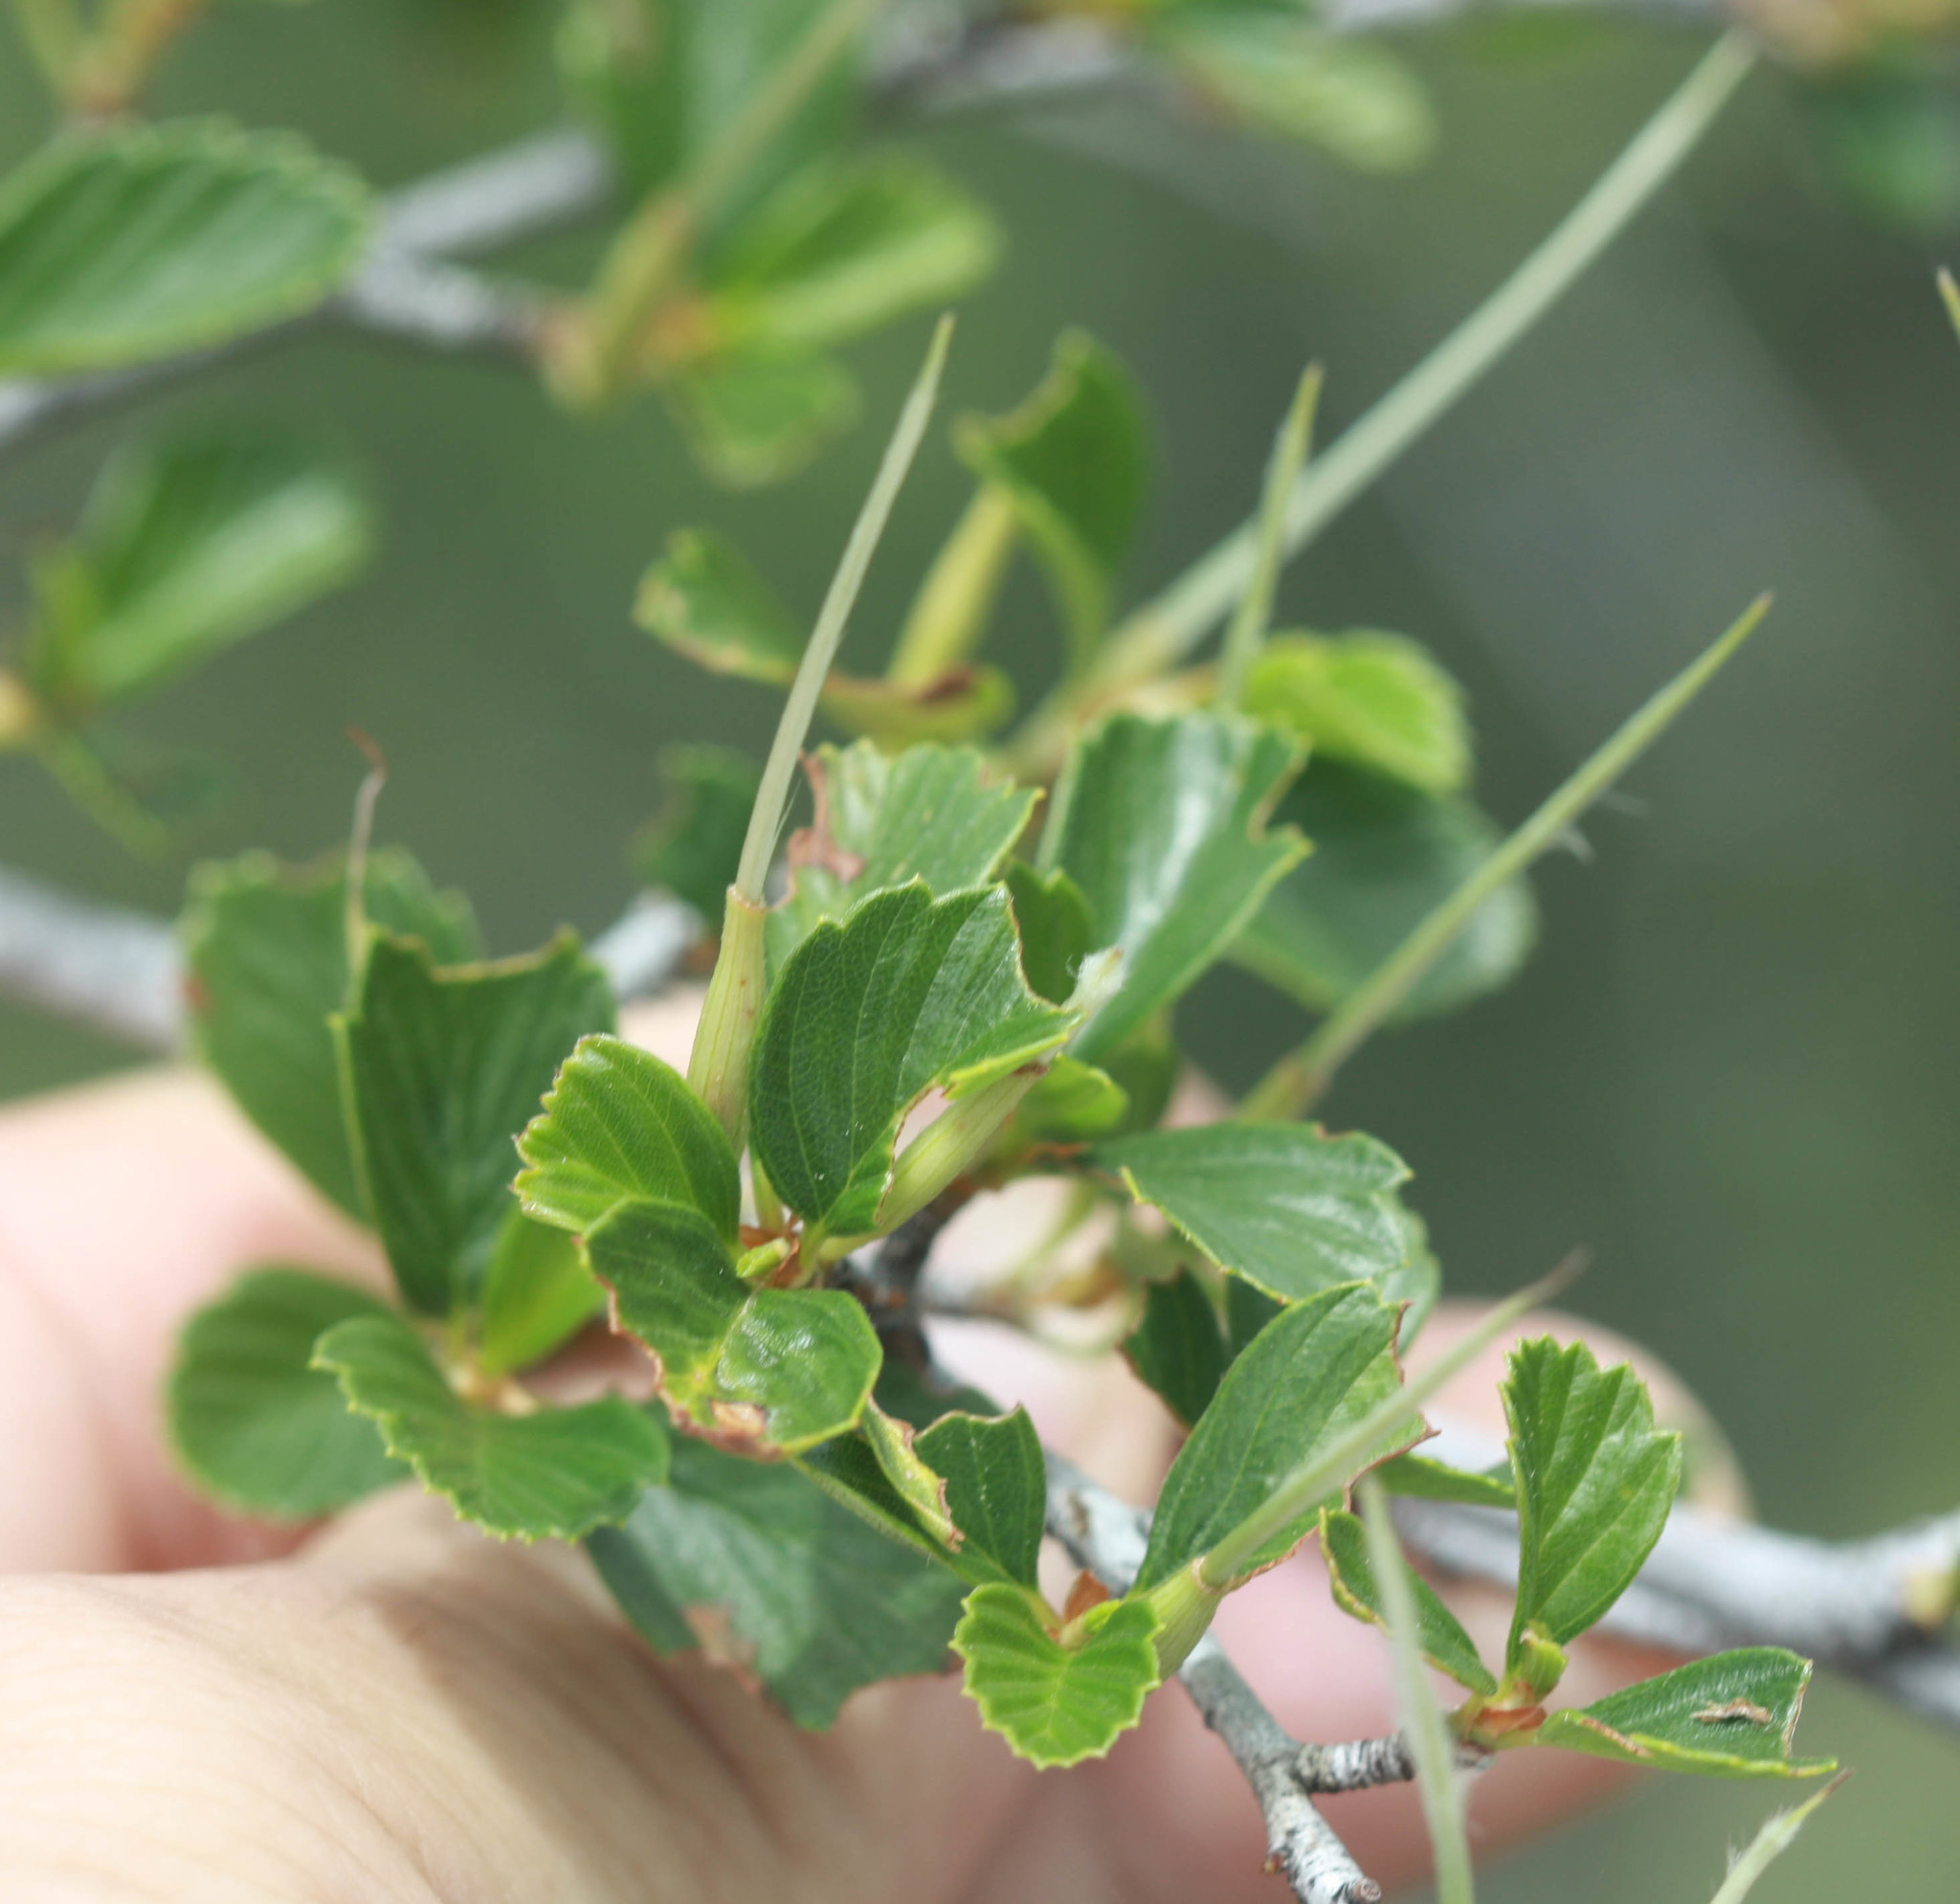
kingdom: Plantae
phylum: Tracheophyta
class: Magnoliopsida
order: Rosales
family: Rosaceae
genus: Cercocarpus
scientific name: Cercocarpus betuloides
